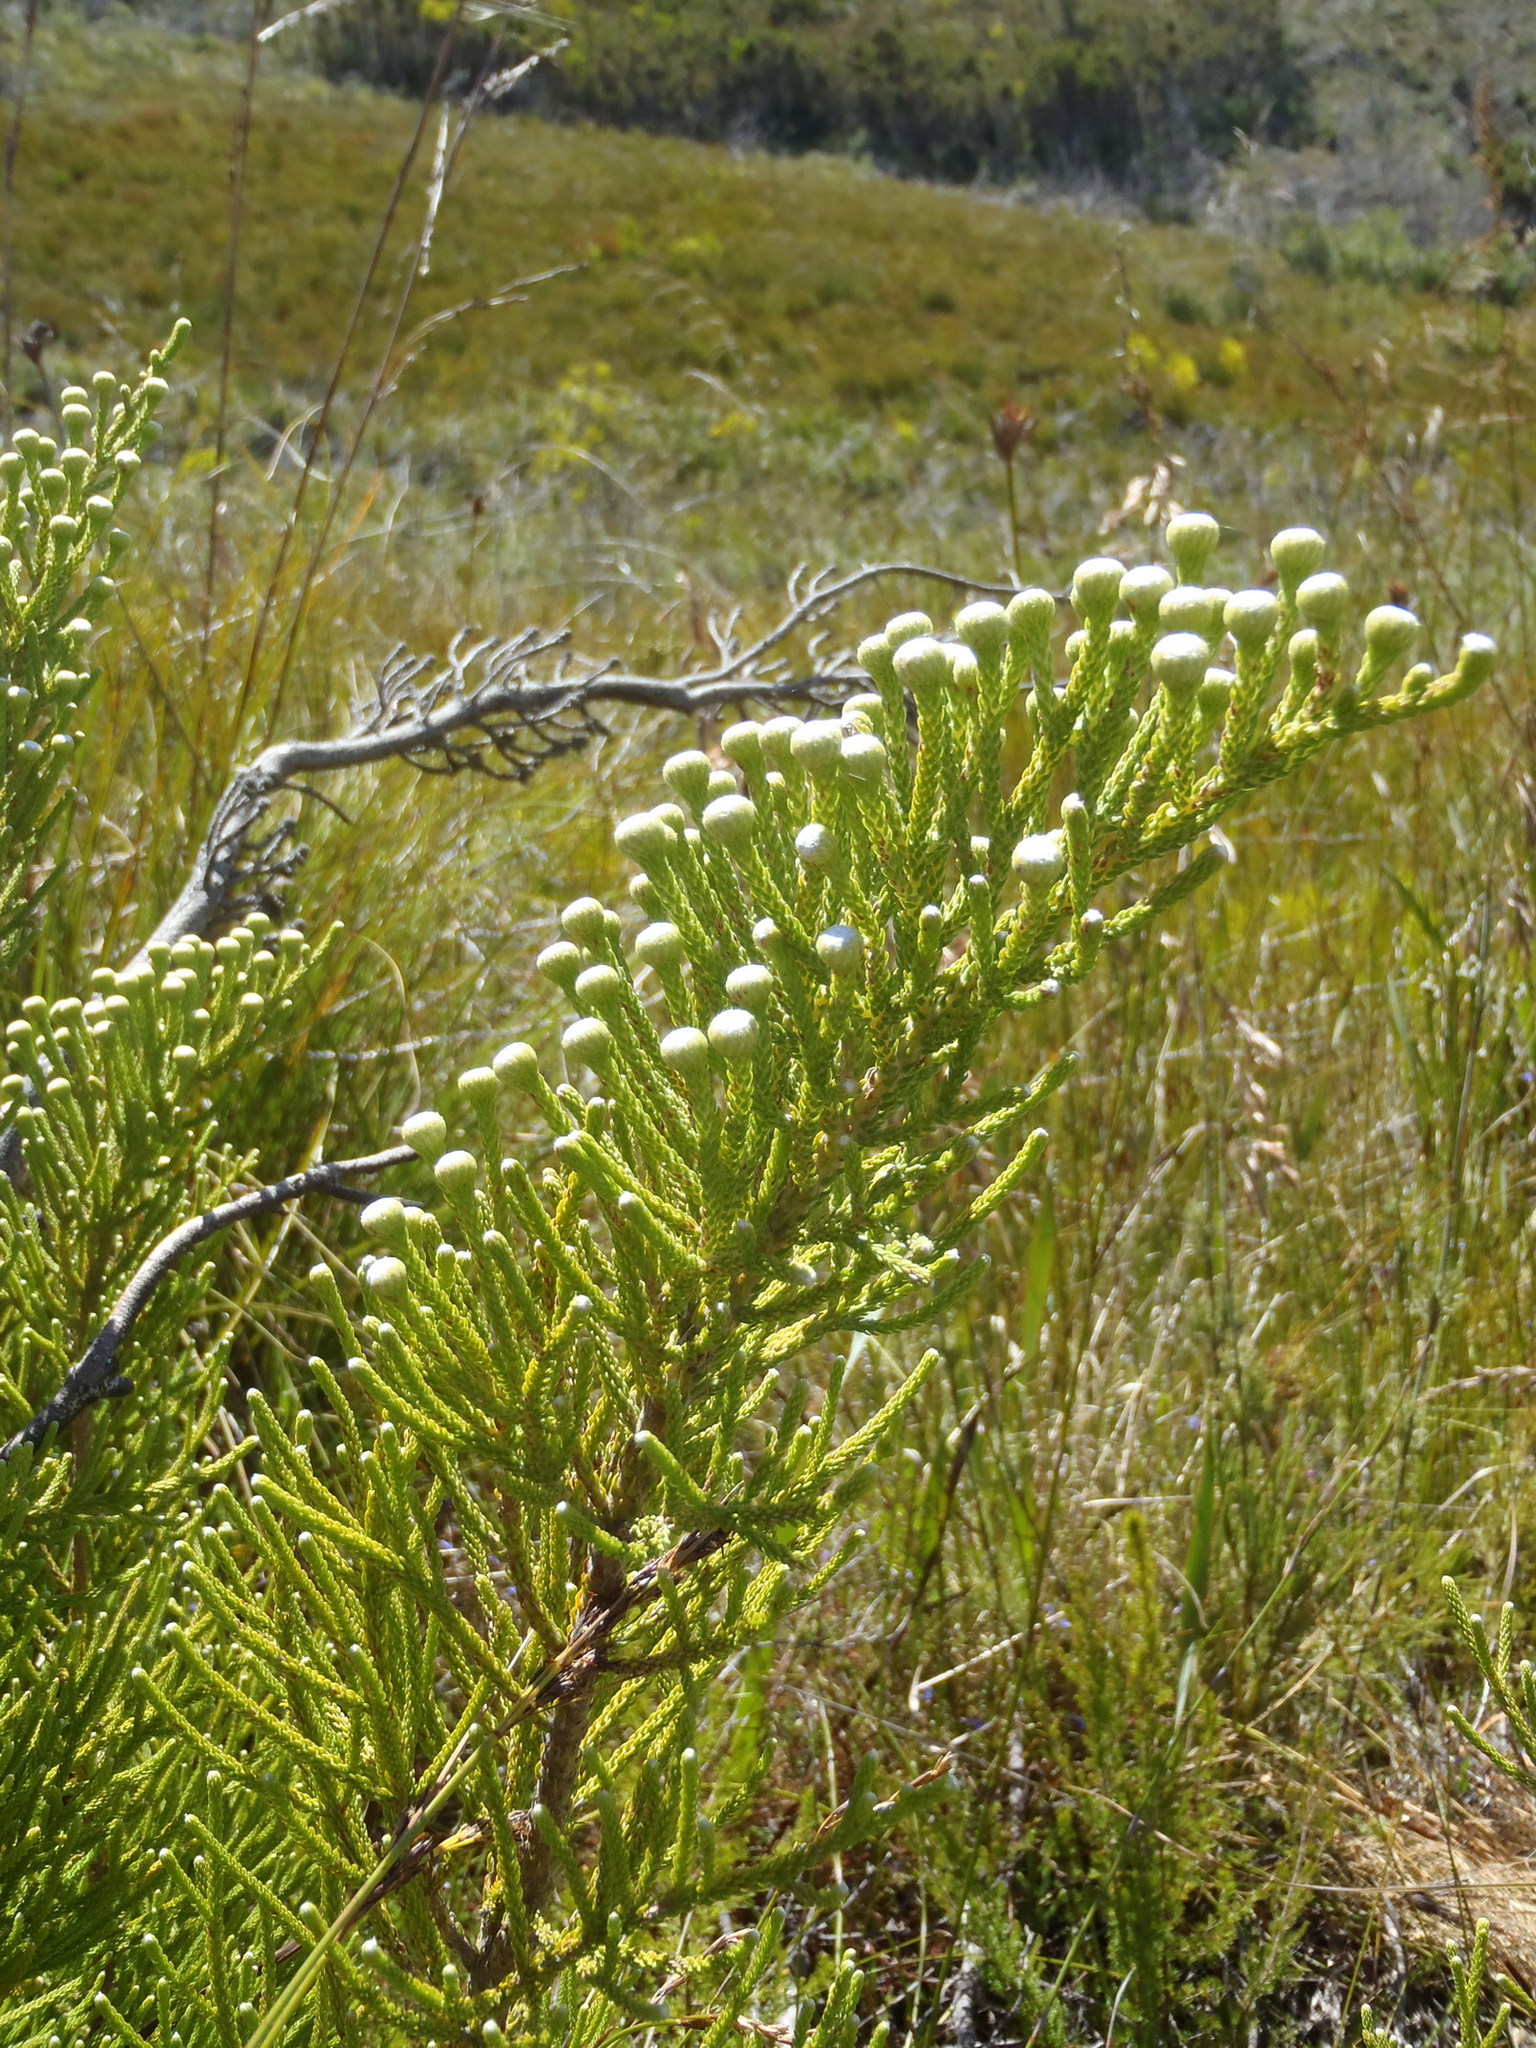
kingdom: Plantae
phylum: Tracheophyta
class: Magnoliopsida
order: Bruniales
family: Bruniaceae
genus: Brunia
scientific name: Brunia noduliflora
